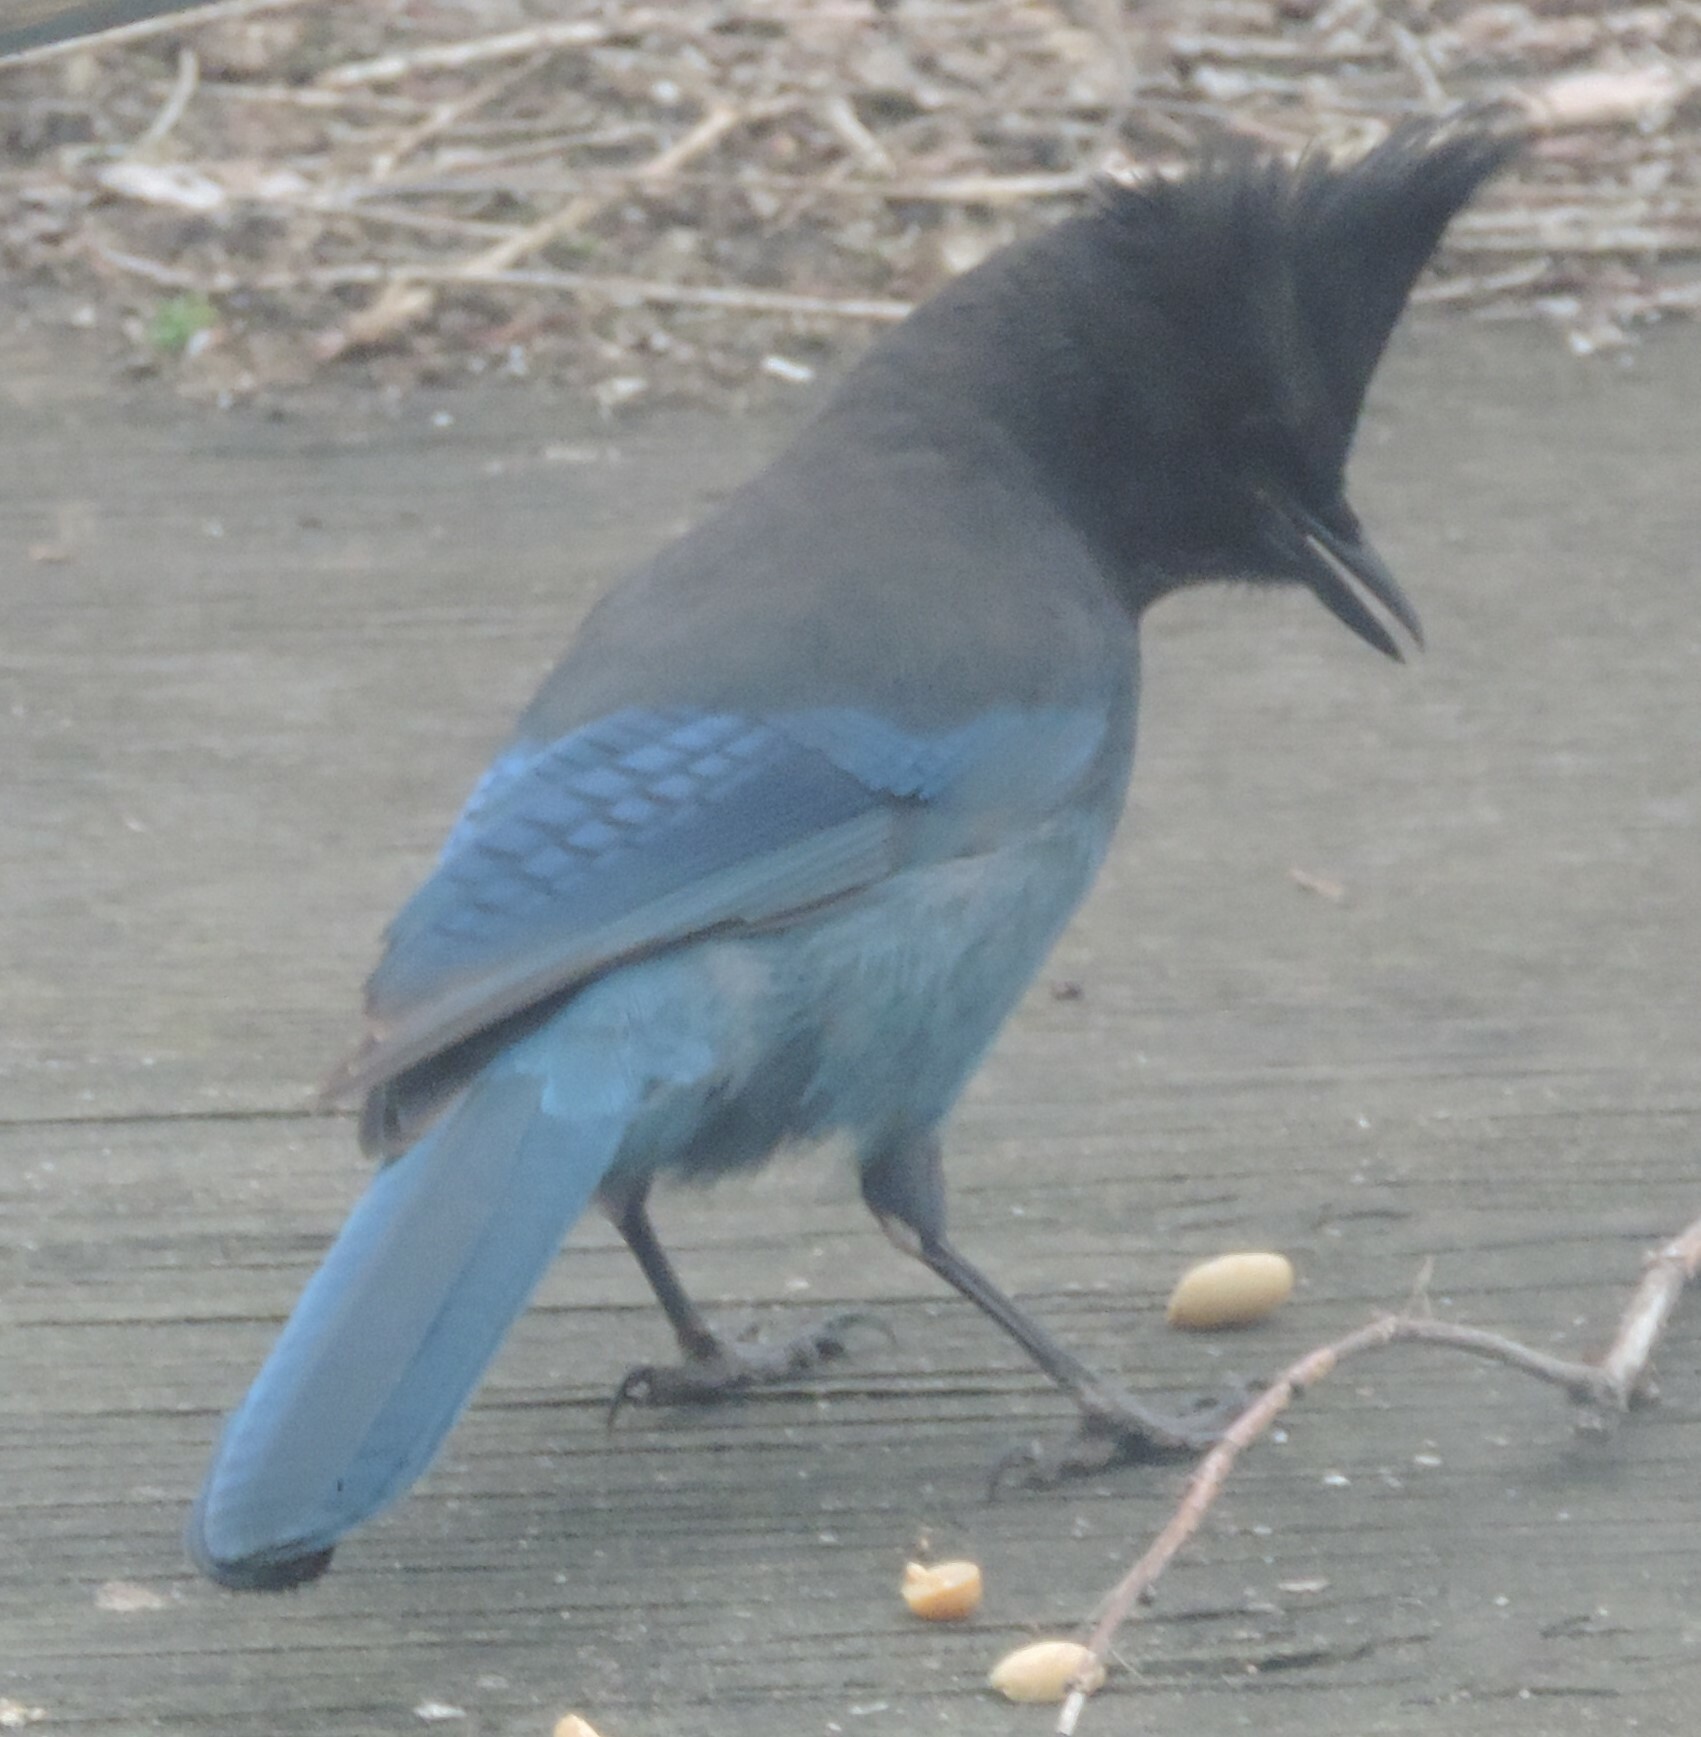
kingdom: Animalia
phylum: Chordata
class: Aves
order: Passeriformes
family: Corvidae
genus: Cyanocitta
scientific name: Cyanocitta stelleri
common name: Steller's jay
